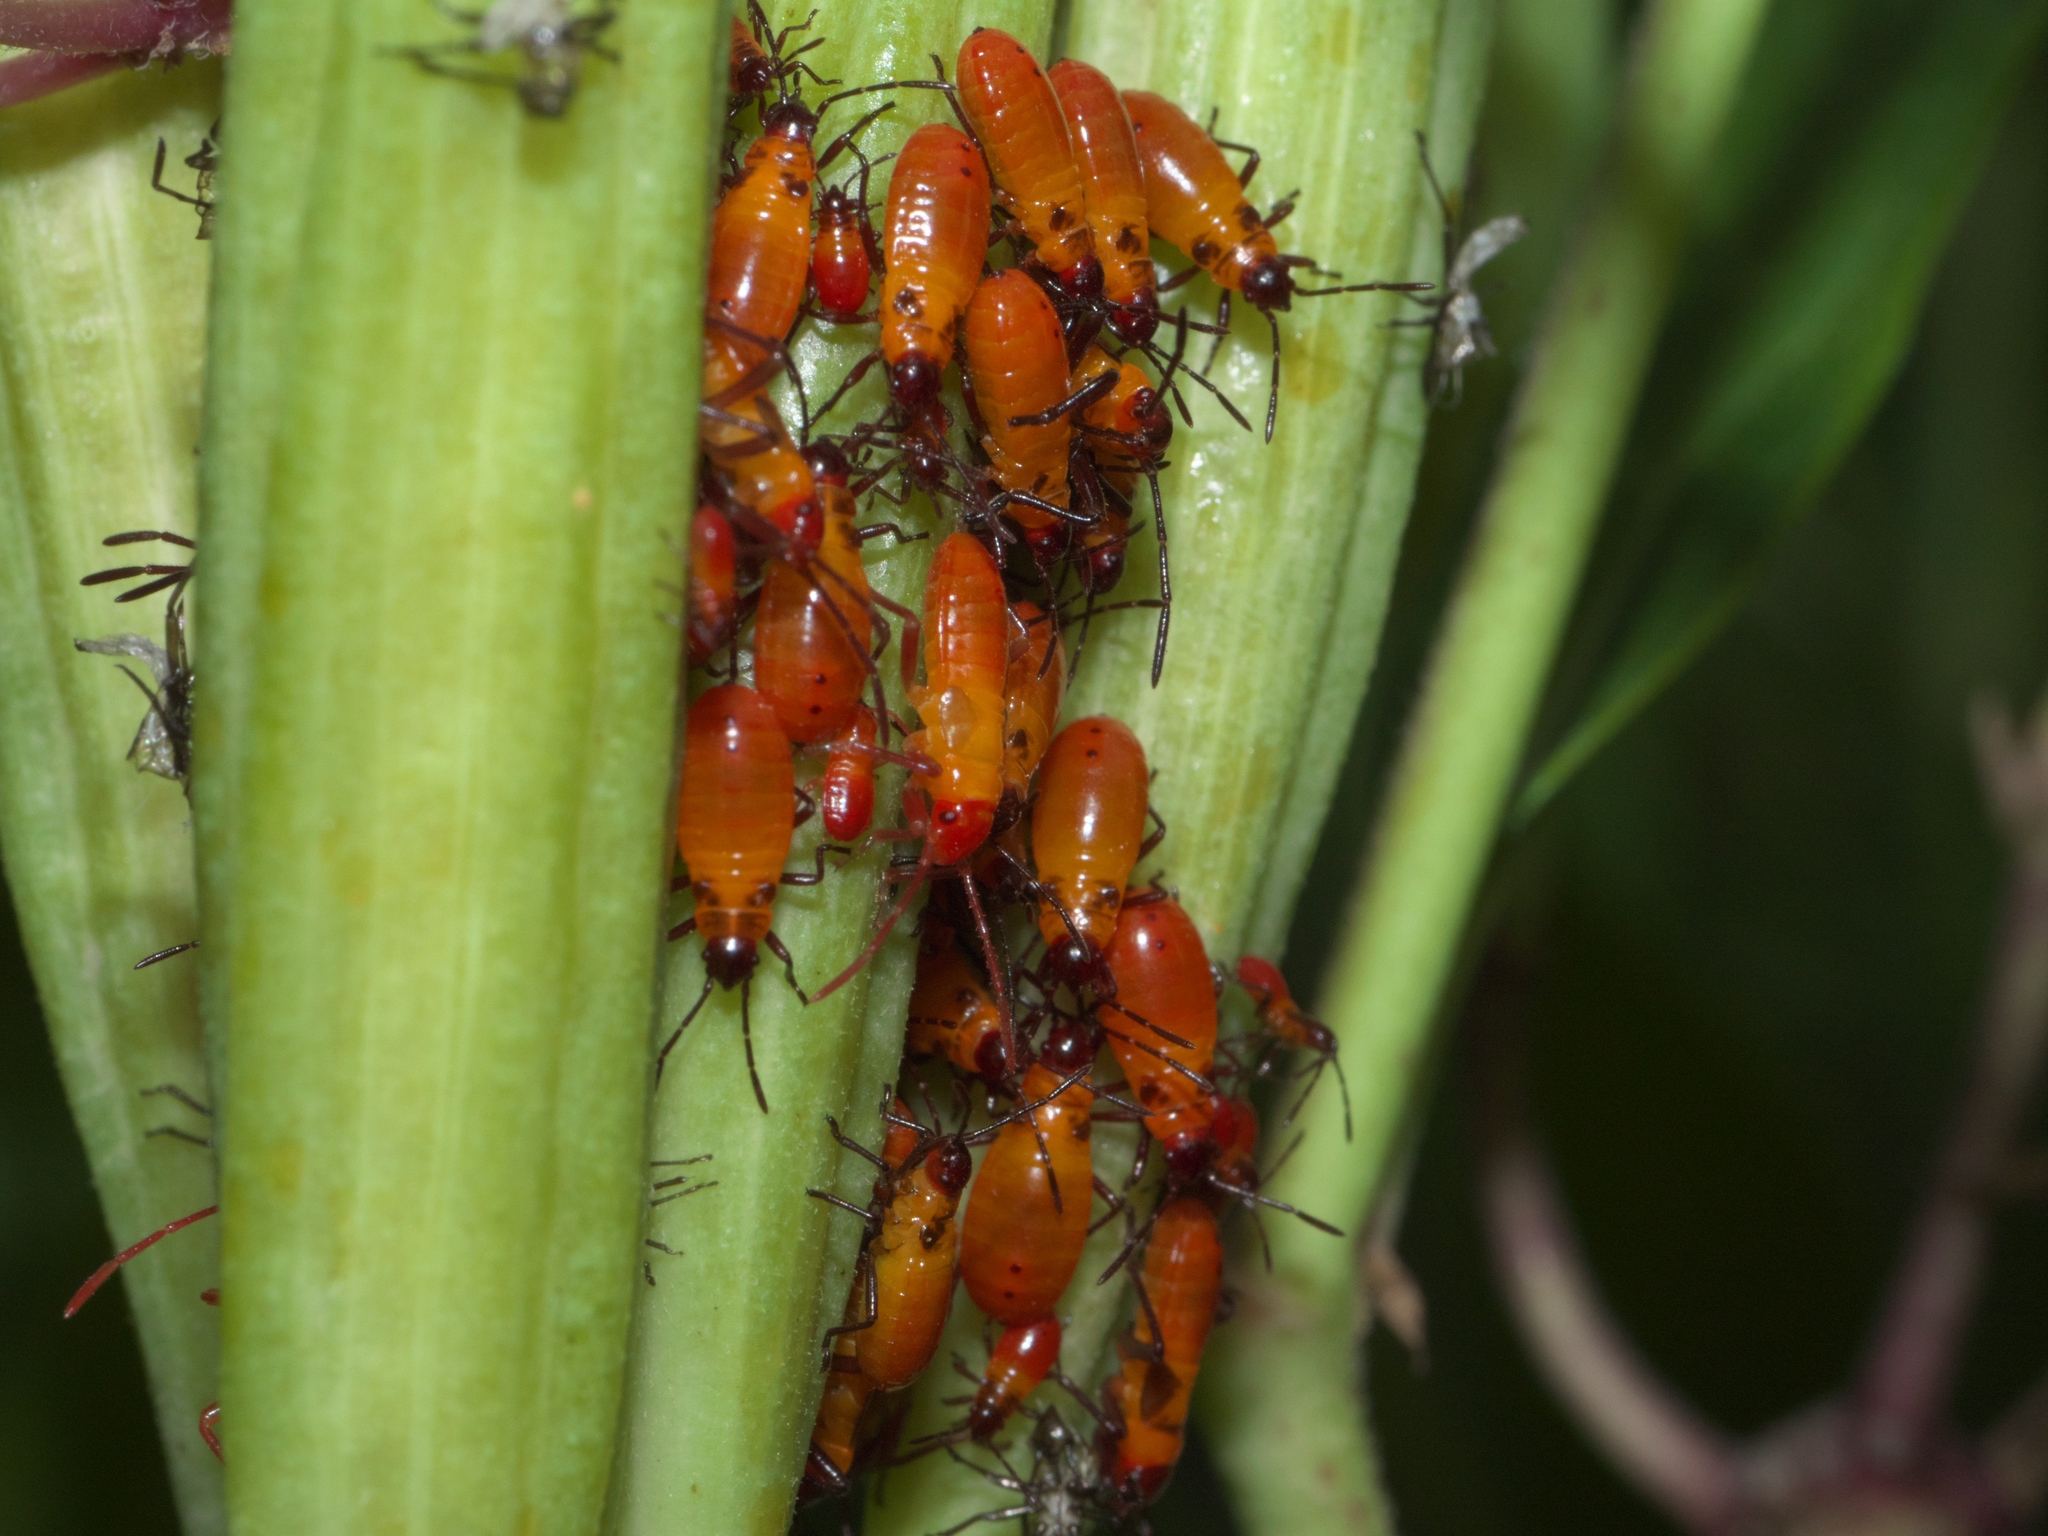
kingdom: Animalia
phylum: Arthropoda
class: Insecta
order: Hemiptera
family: Lygaeidae
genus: Oncopeltus
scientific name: Oncopeltus fasciatus
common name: Large milkweed bug
